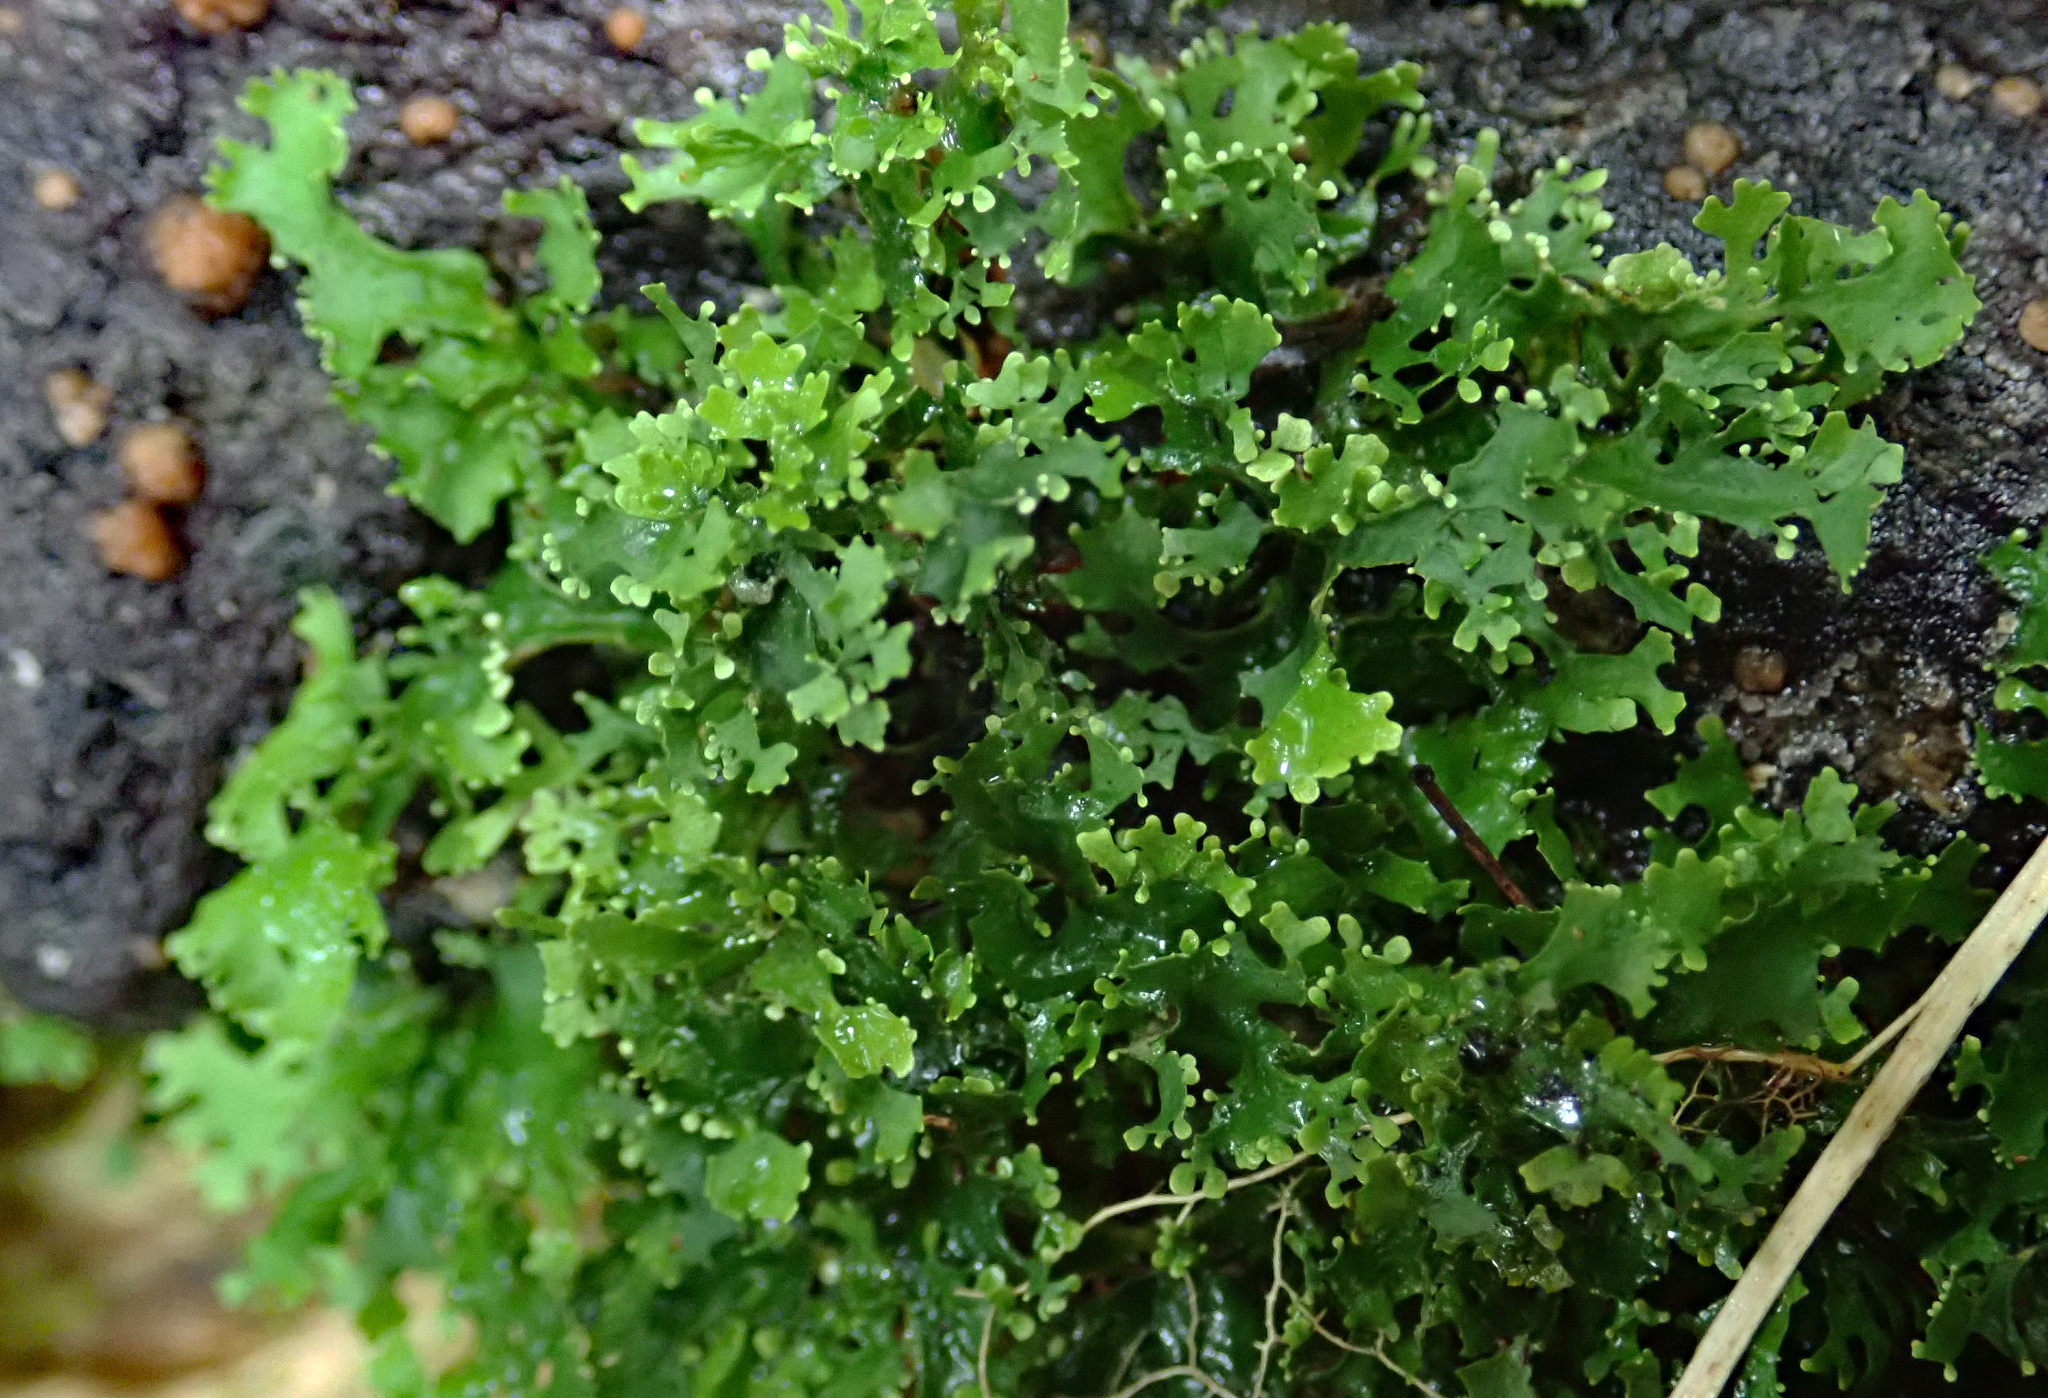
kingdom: Fungi
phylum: Ascomycota
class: Lecanoromycetes
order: Peltigerales
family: Lobariaceae
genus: Sticta
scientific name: Sticta
